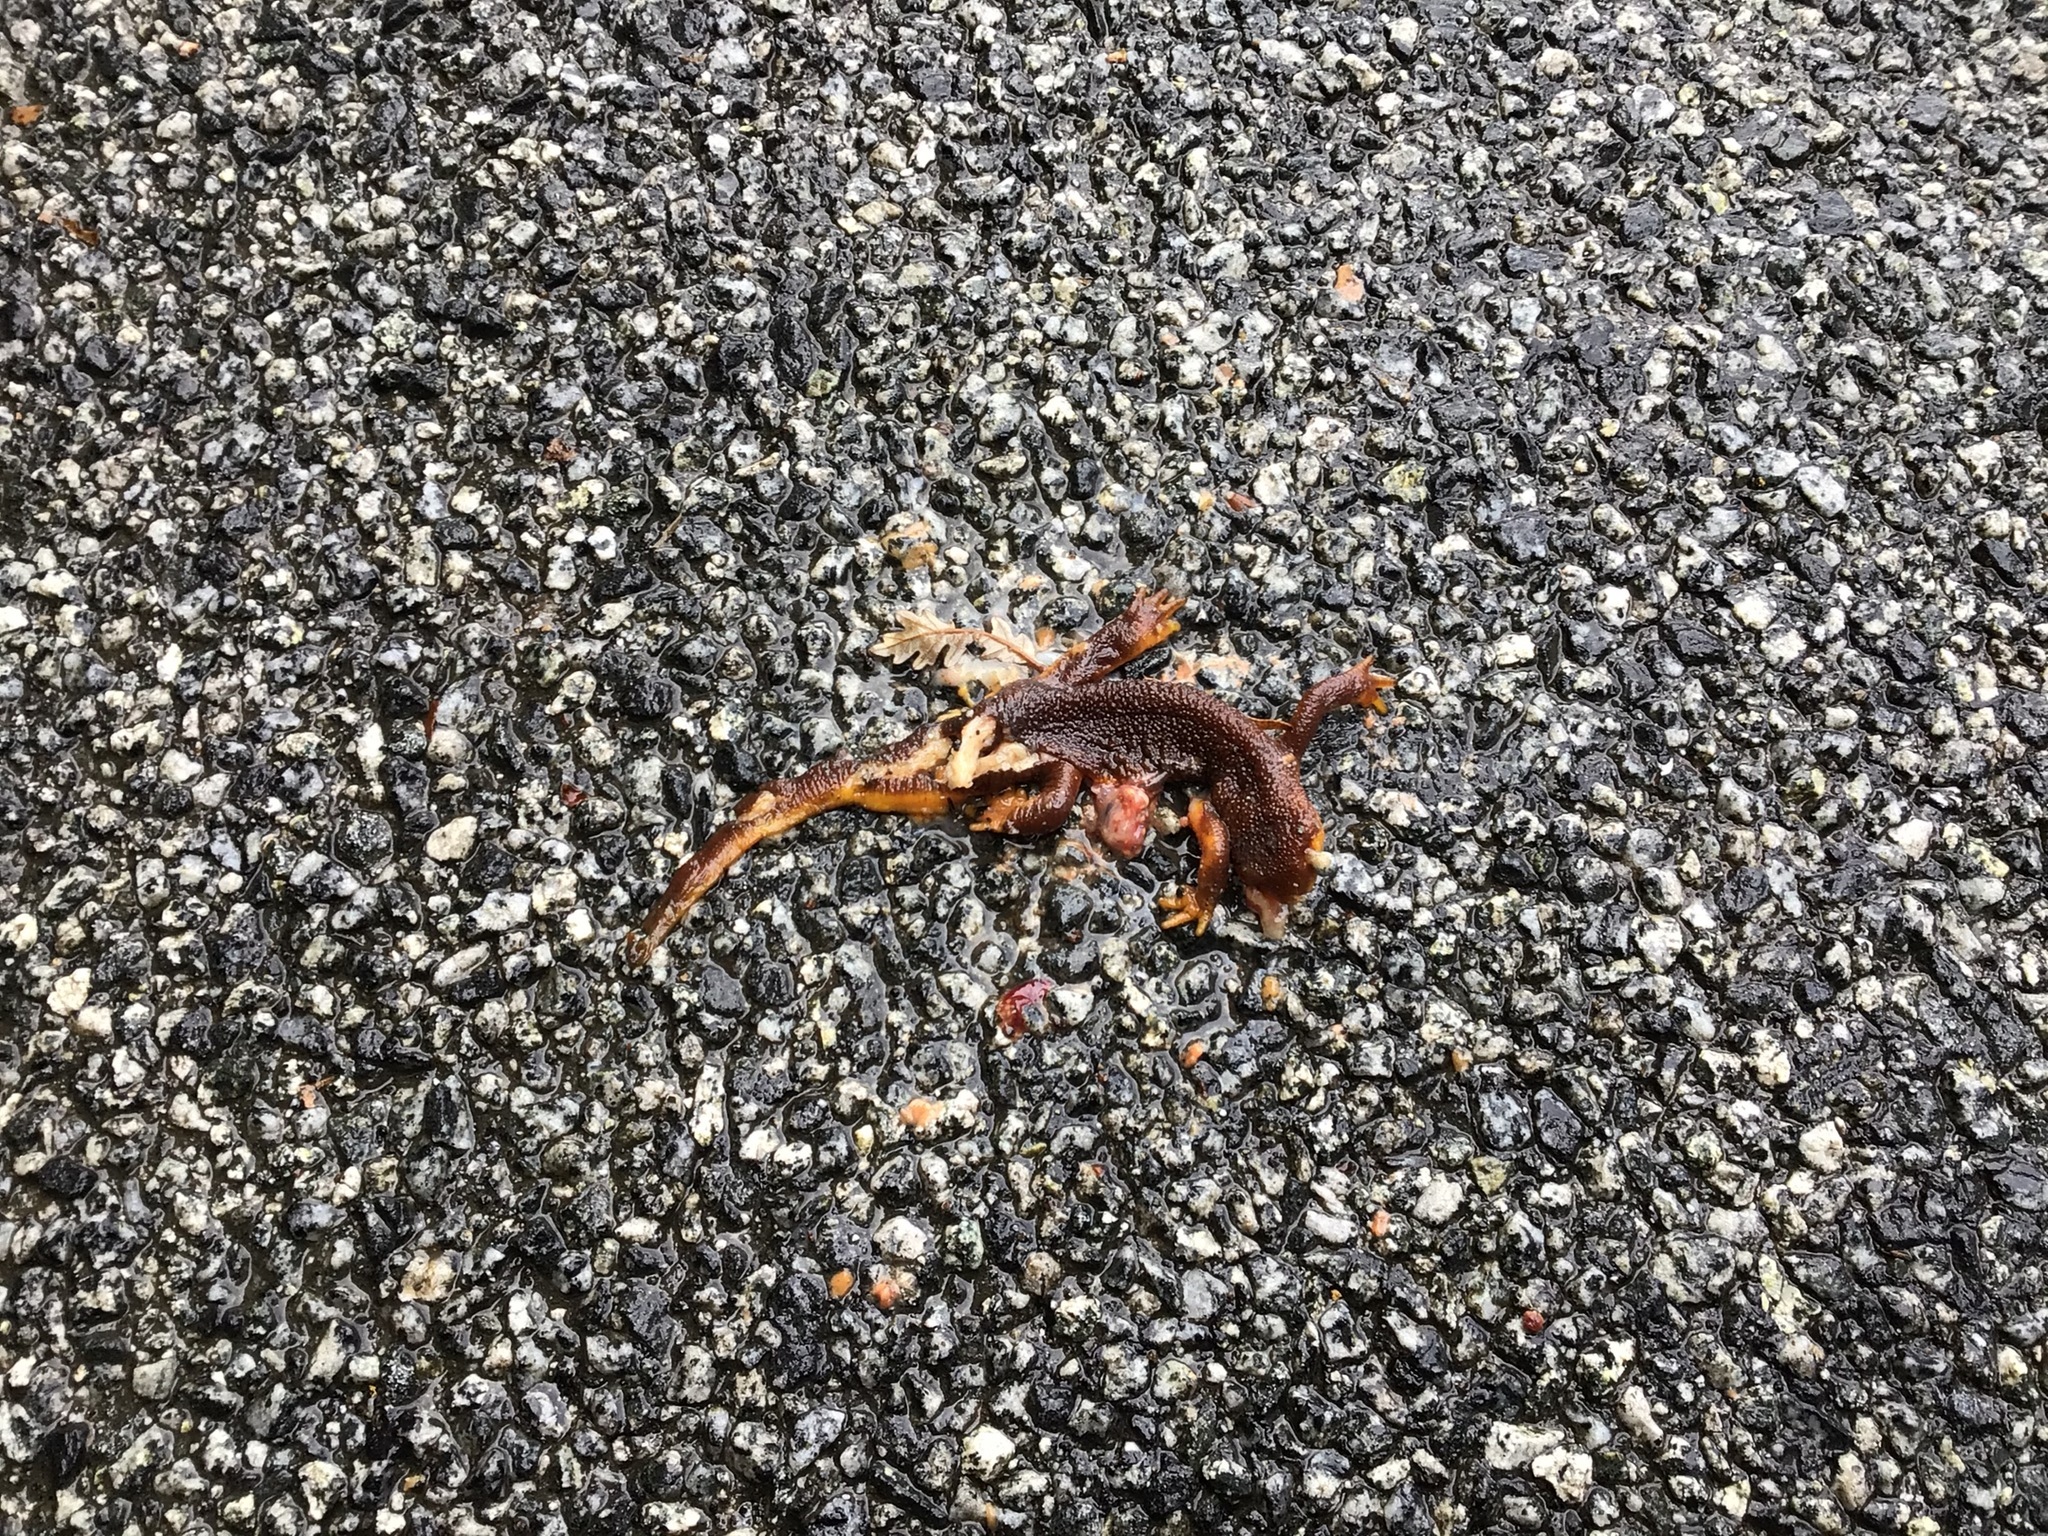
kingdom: Animalia
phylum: Chordata
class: Amphibia
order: Caudata
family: Salamandridae
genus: Taricha
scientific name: Taricha
